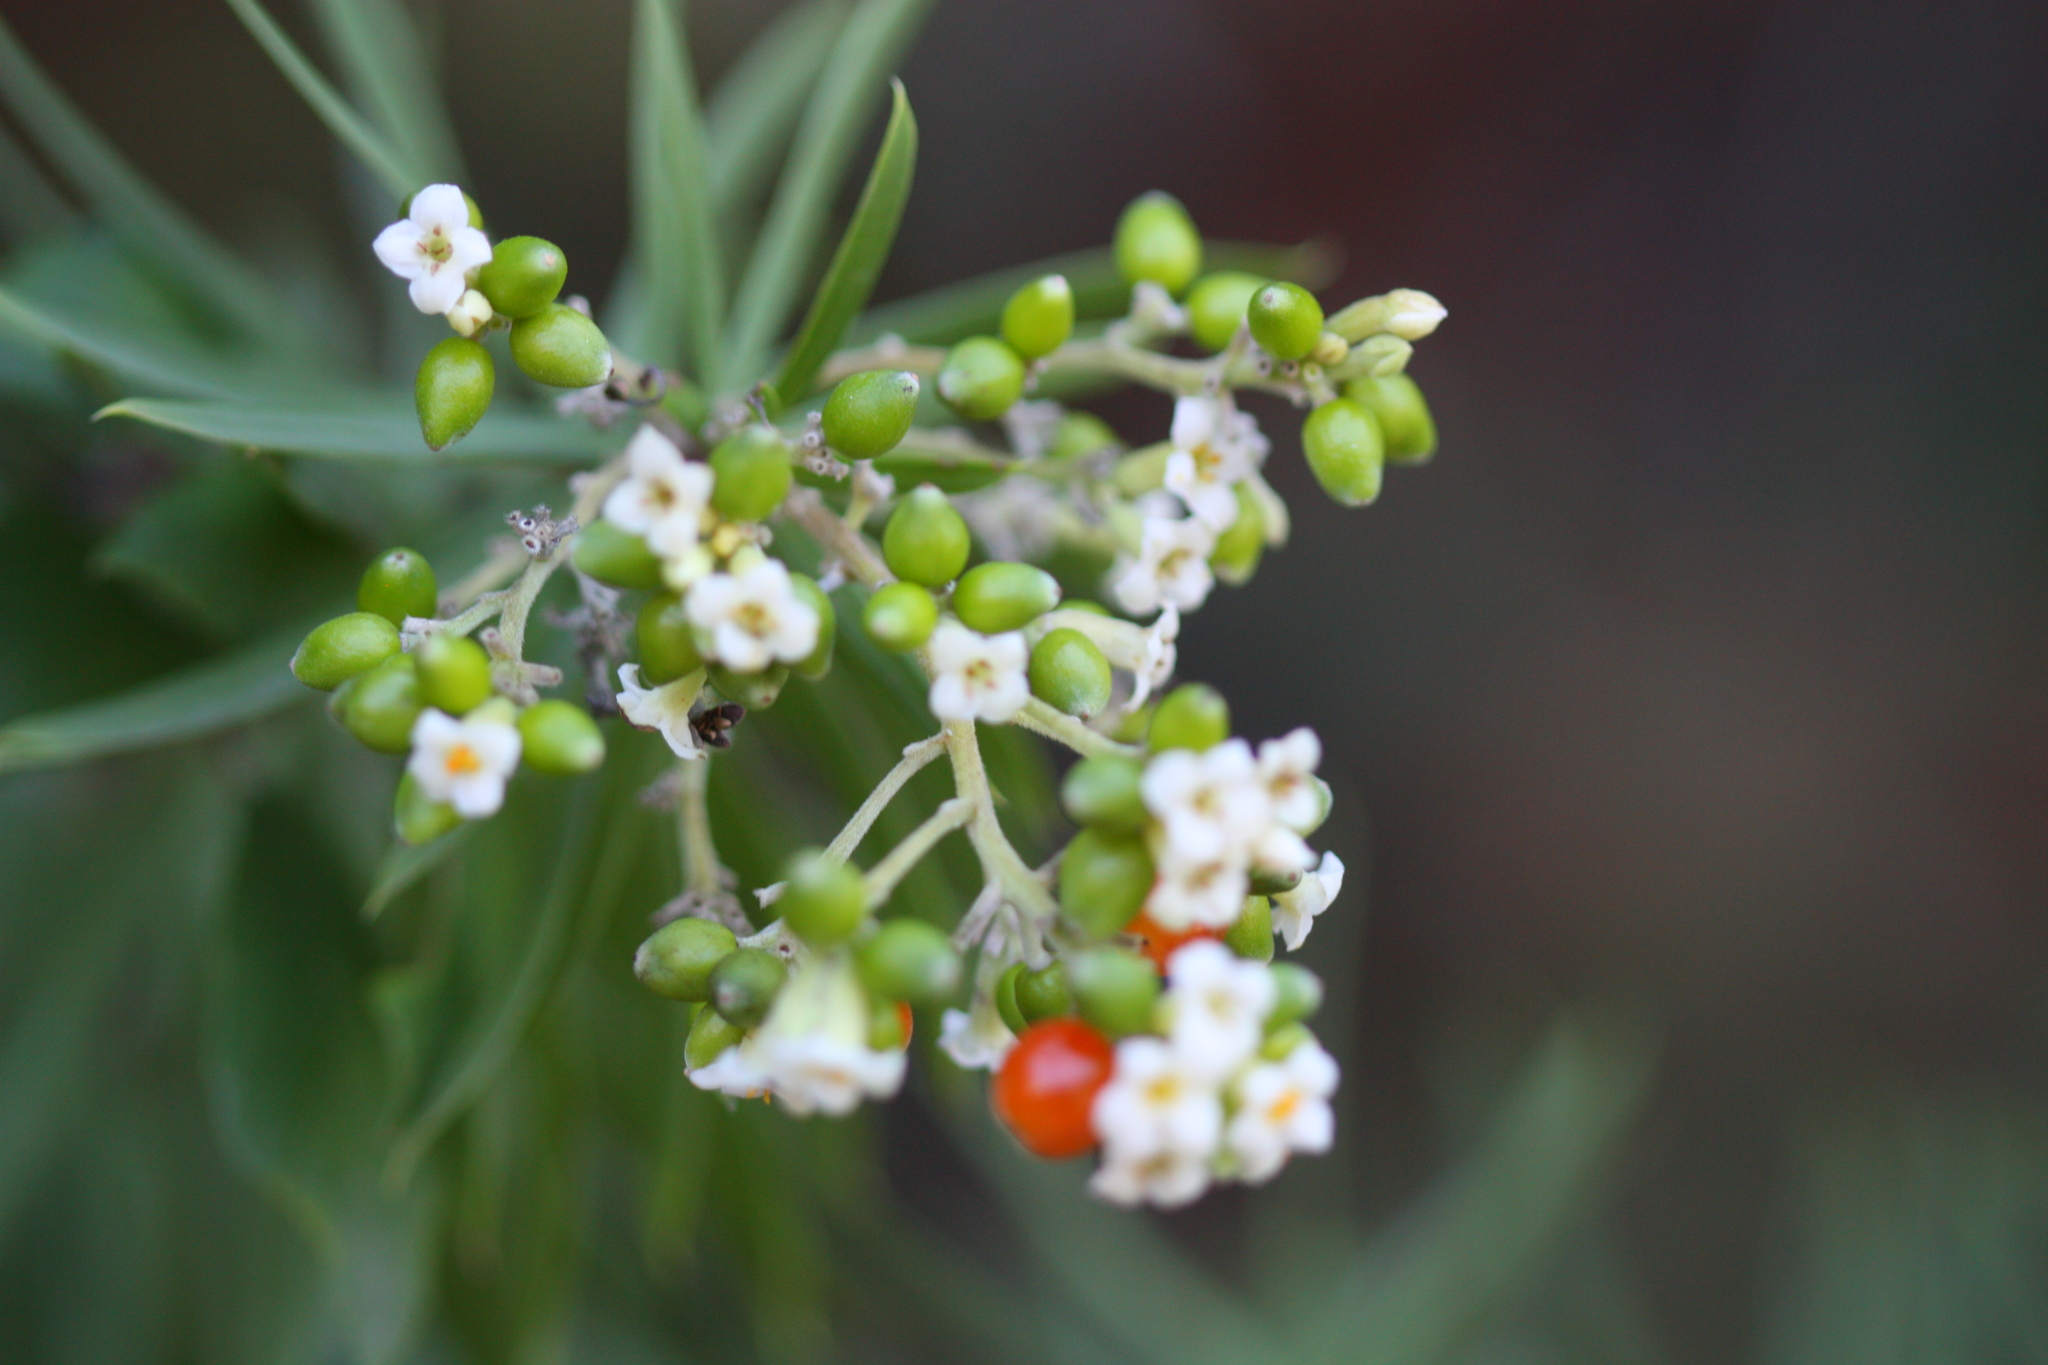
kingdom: Plantae
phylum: Tracheophyta
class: Magnoliopsida
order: Malvales
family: Thymelaeaceae
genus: Daphne
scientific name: Daphne gnidium
